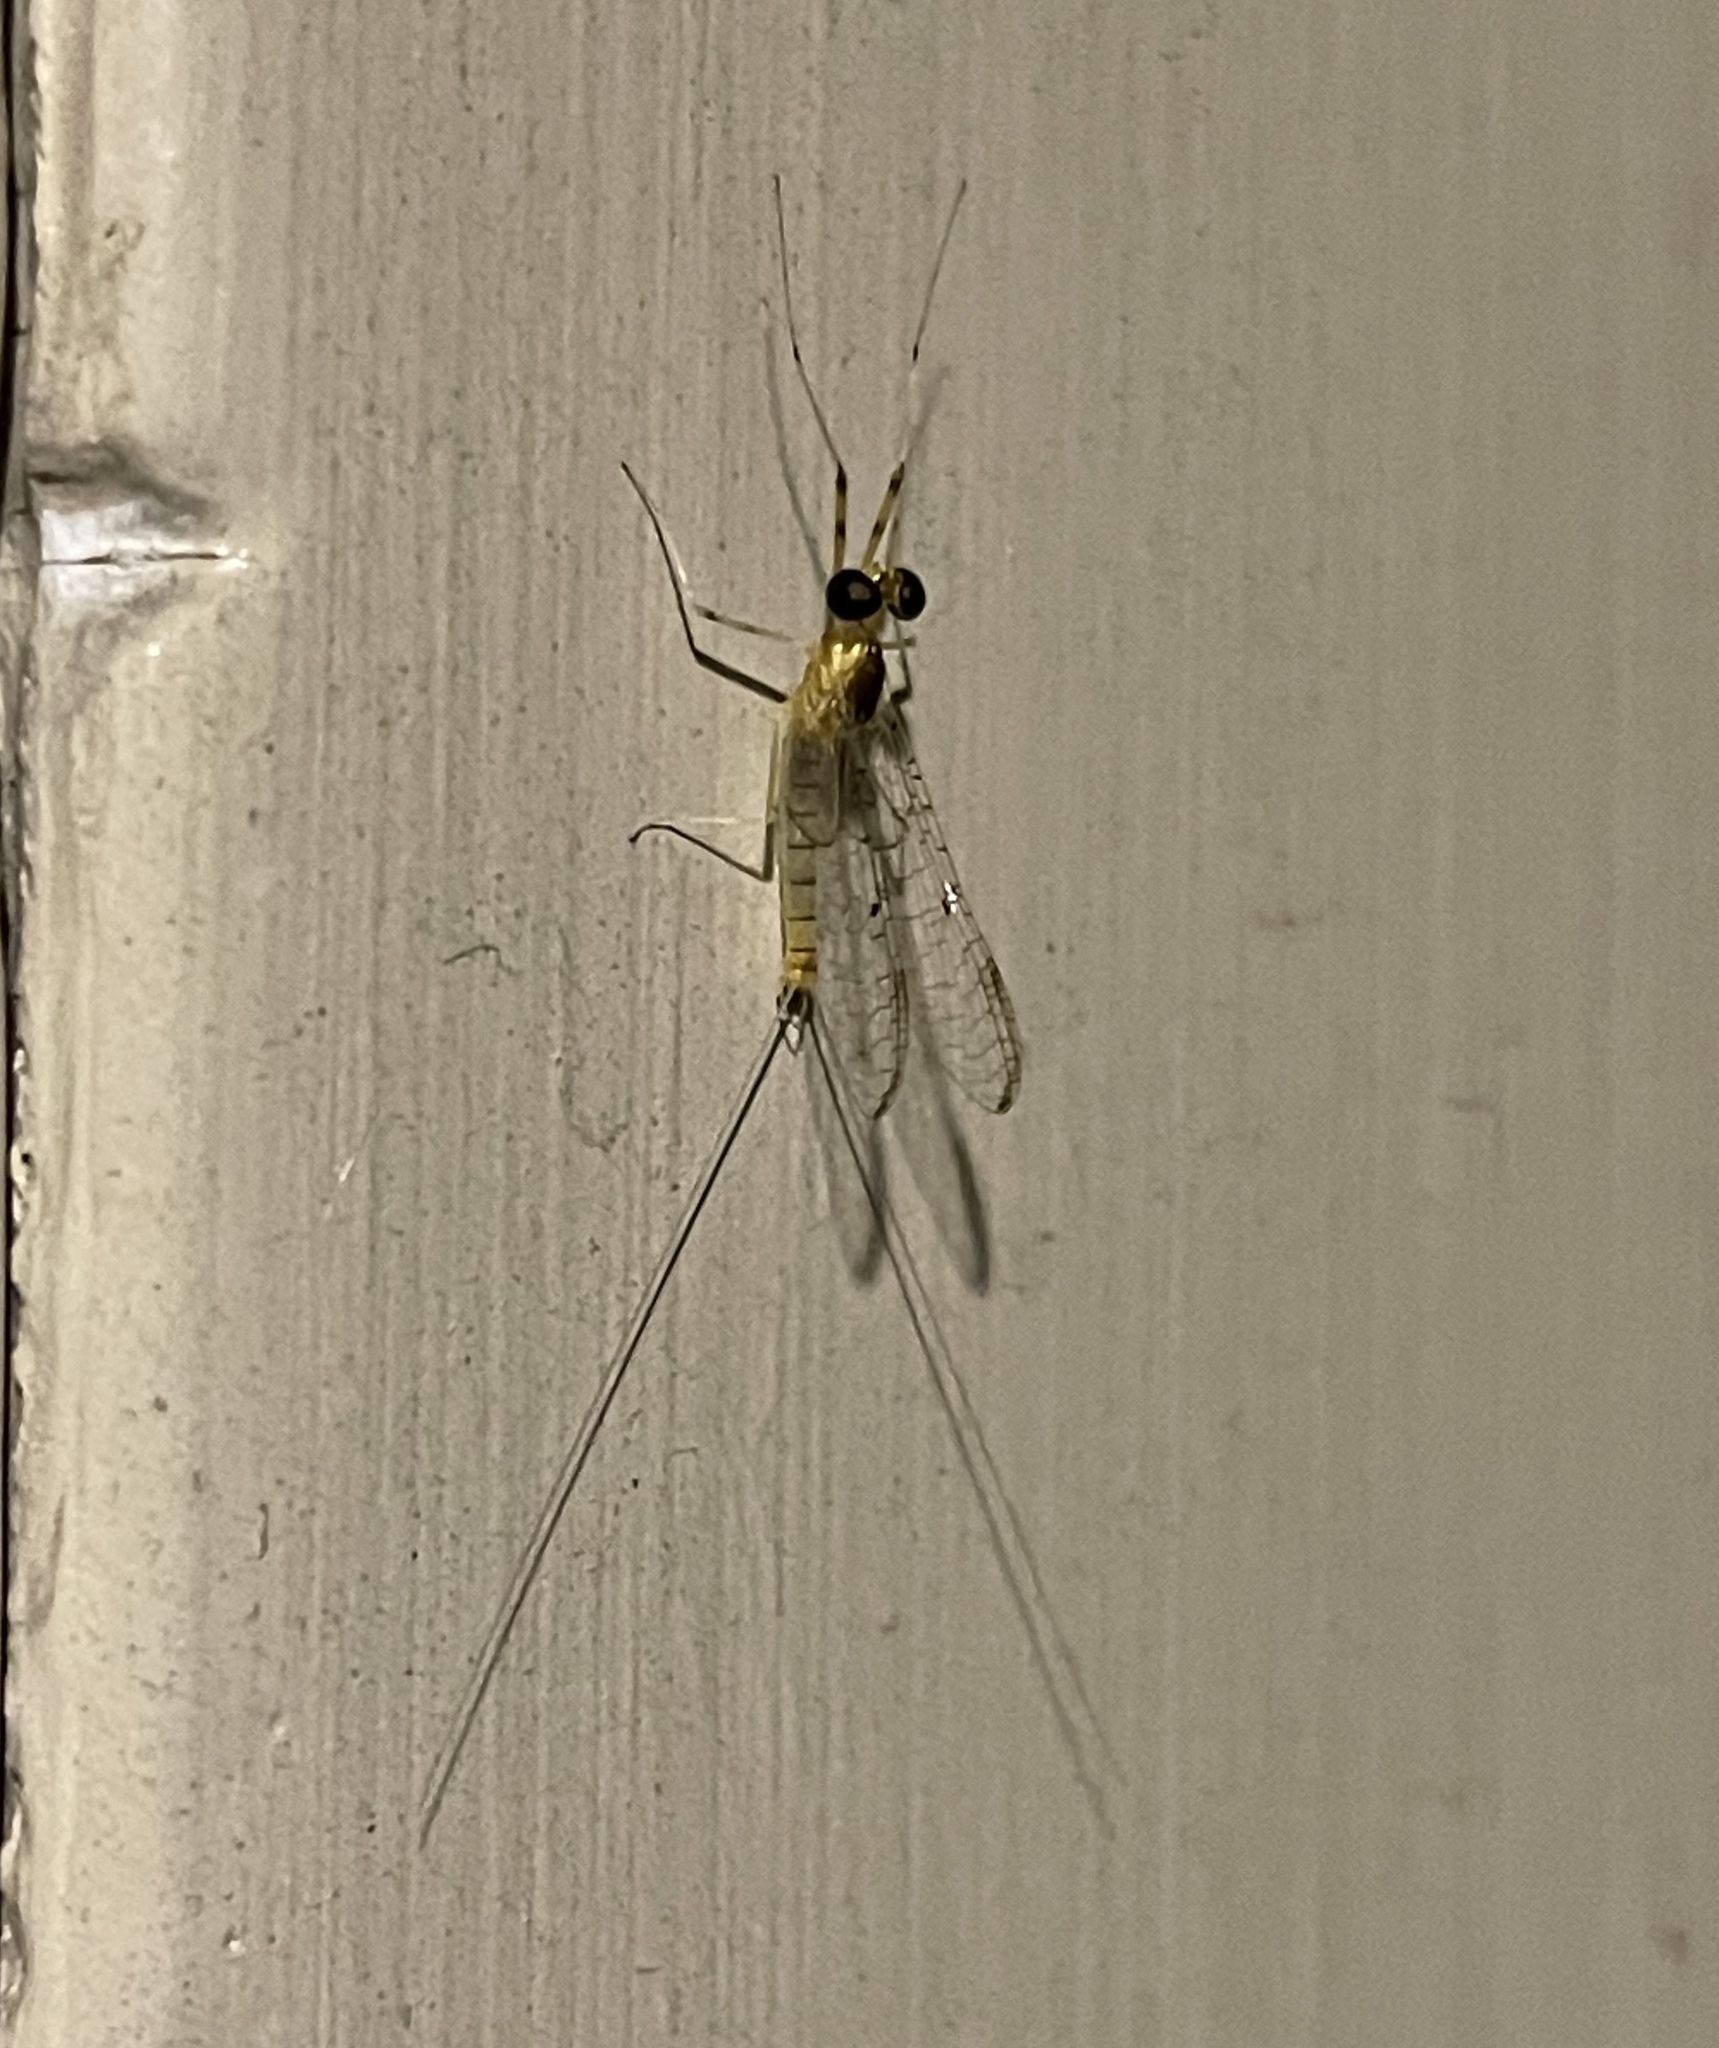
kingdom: Animalia
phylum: Arthropoda
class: Insecta
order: Ephemeroptera
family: Heptageniidae
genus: Stenacron
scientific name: Stenacron interpunctatum
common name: Orange cahill
